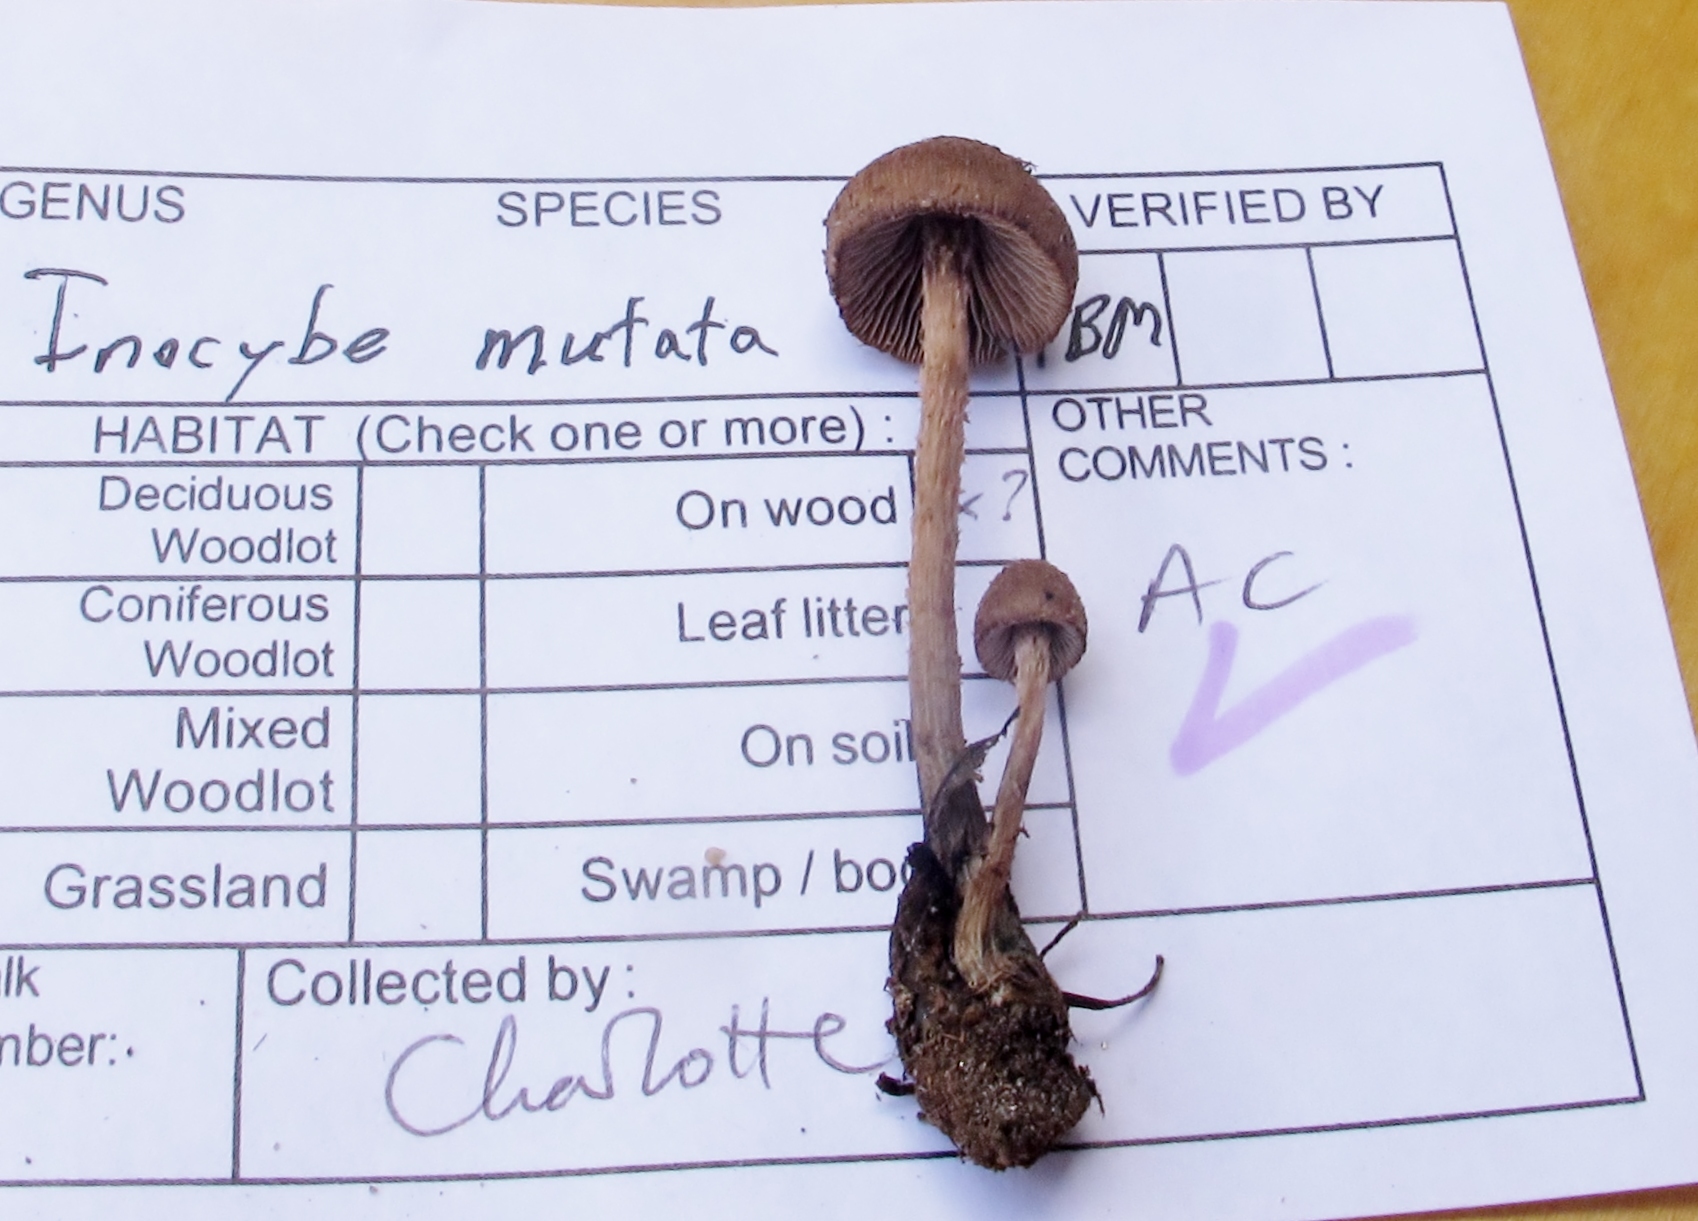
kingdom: Fungi
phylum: Basidiomycota
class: Agaricomycetes
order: Agaricales
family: Inocybaceae
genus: Inosperma
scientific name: Inosperma mutatum
